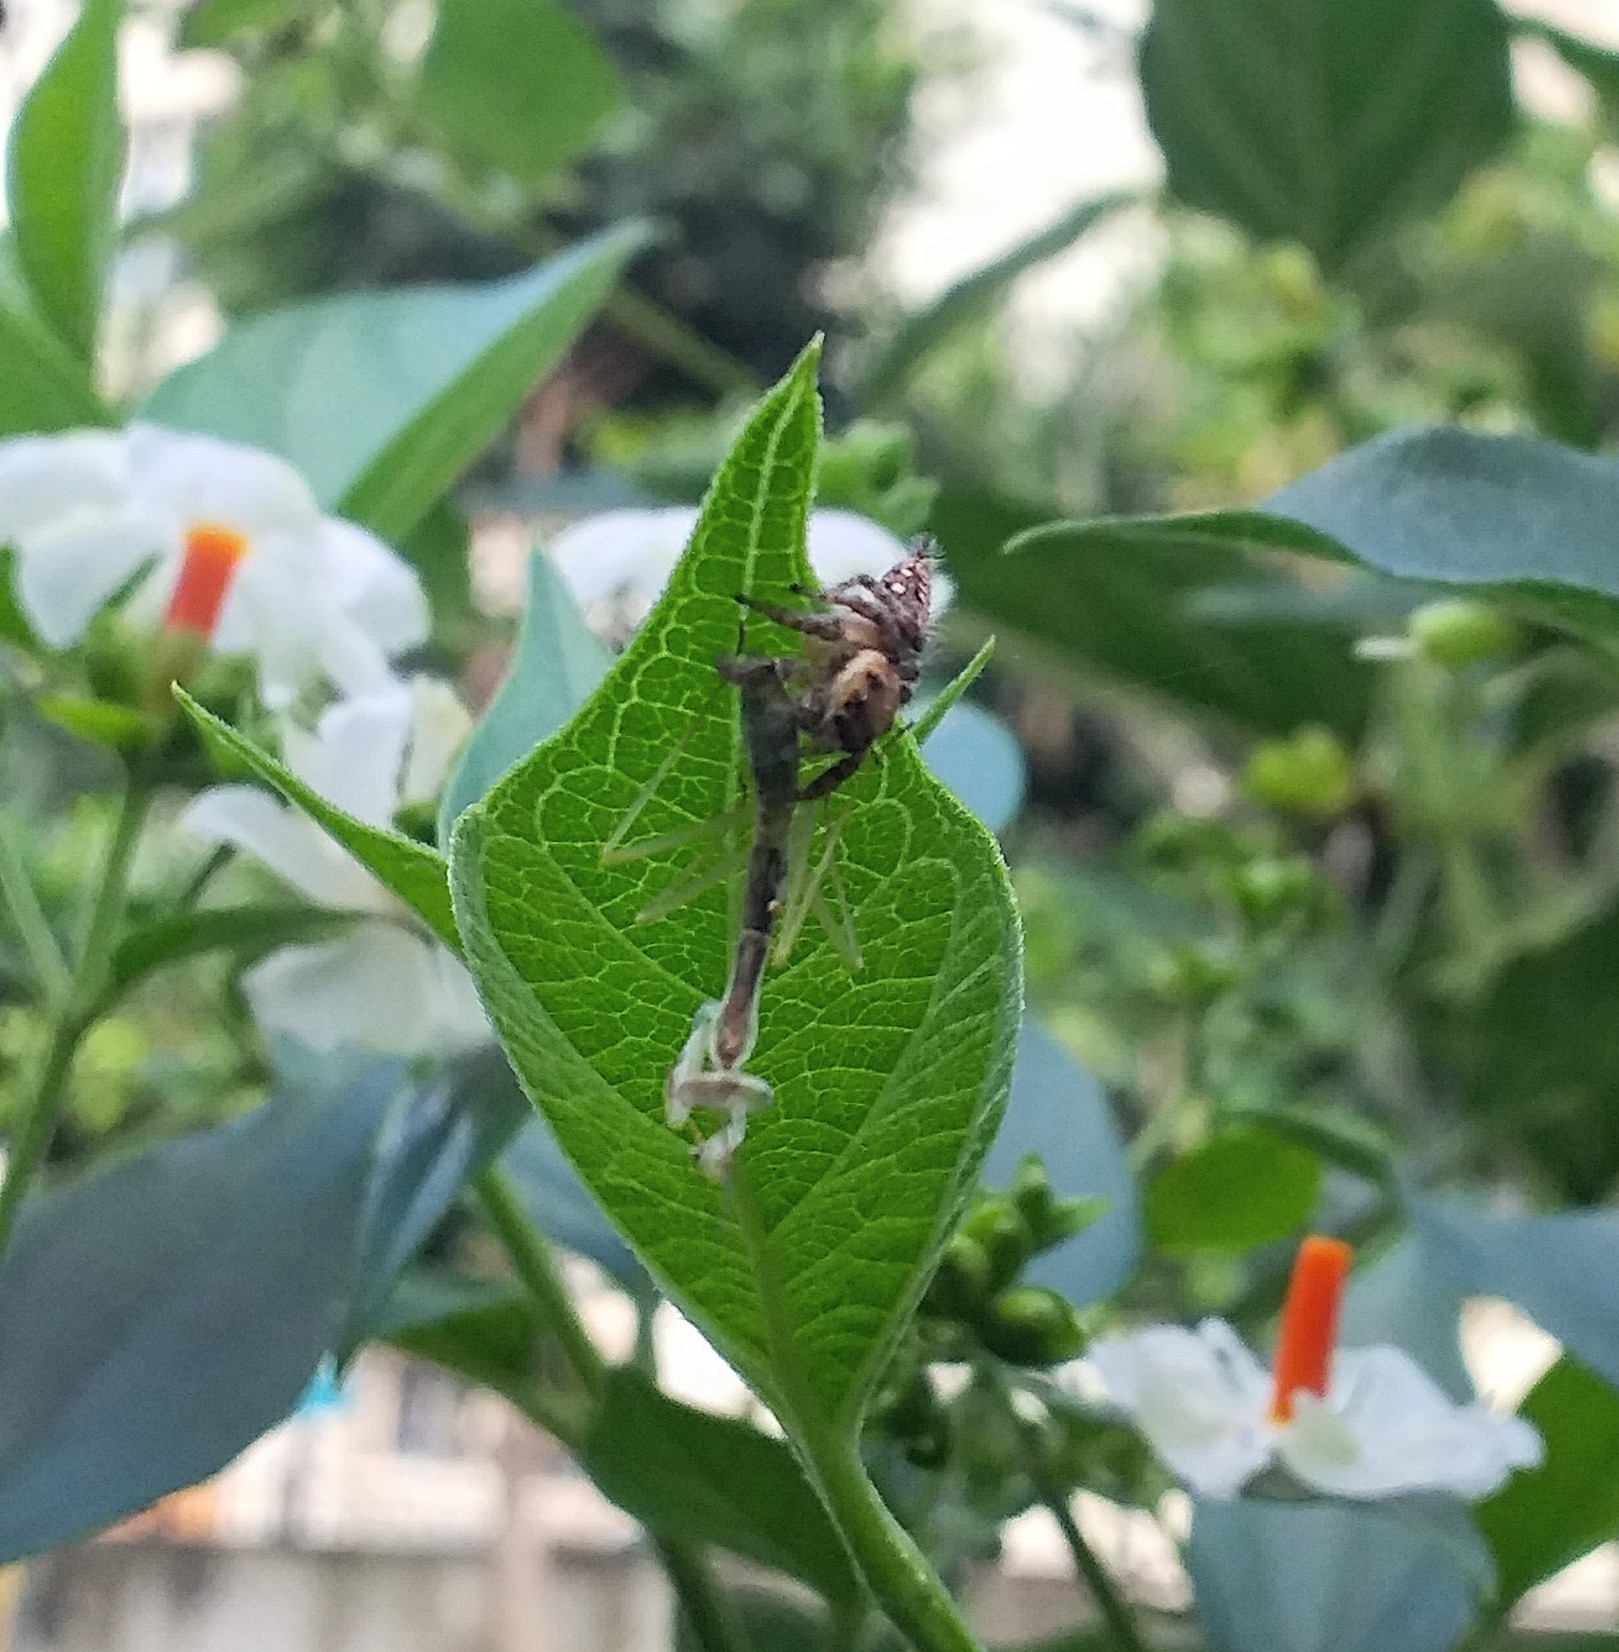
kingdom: Animalia
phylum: Arthropoda
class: Arachnida
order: Araneae
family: Salticidae
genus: Hyllus
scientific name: Hyllus semicupreus
